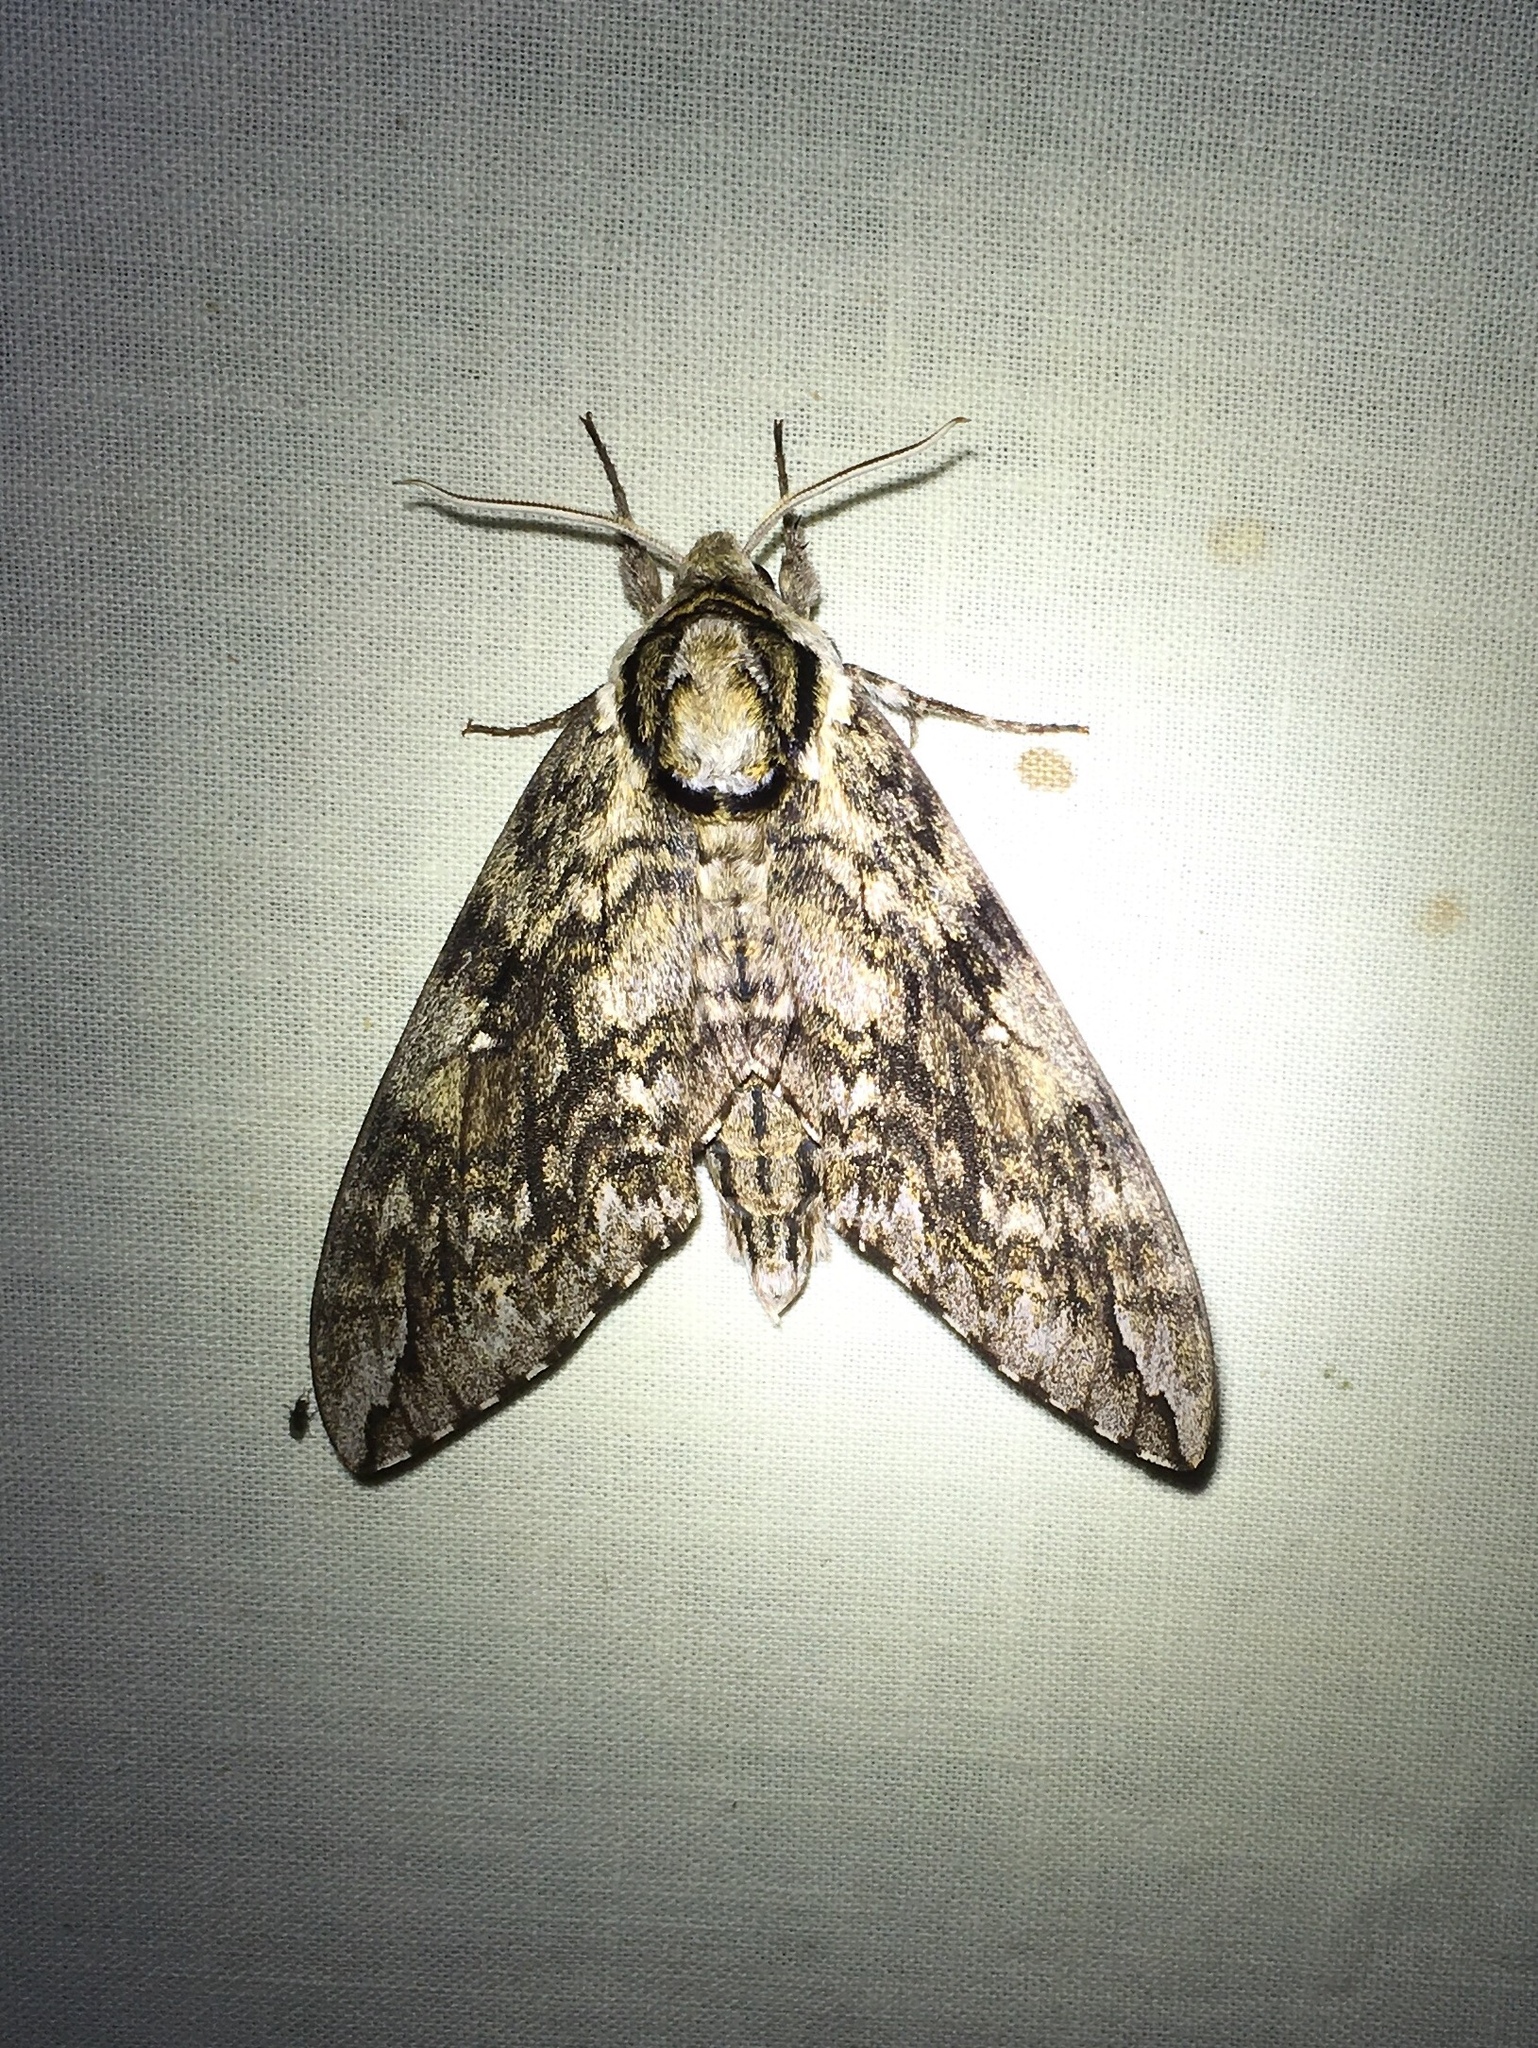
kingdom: Animalia
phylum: Arthropoda
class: Insecta
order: Lepidoptera
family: Sphingidae
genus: Ceratomia
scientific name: Ceratomia undulosa
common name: Waved sphinx
